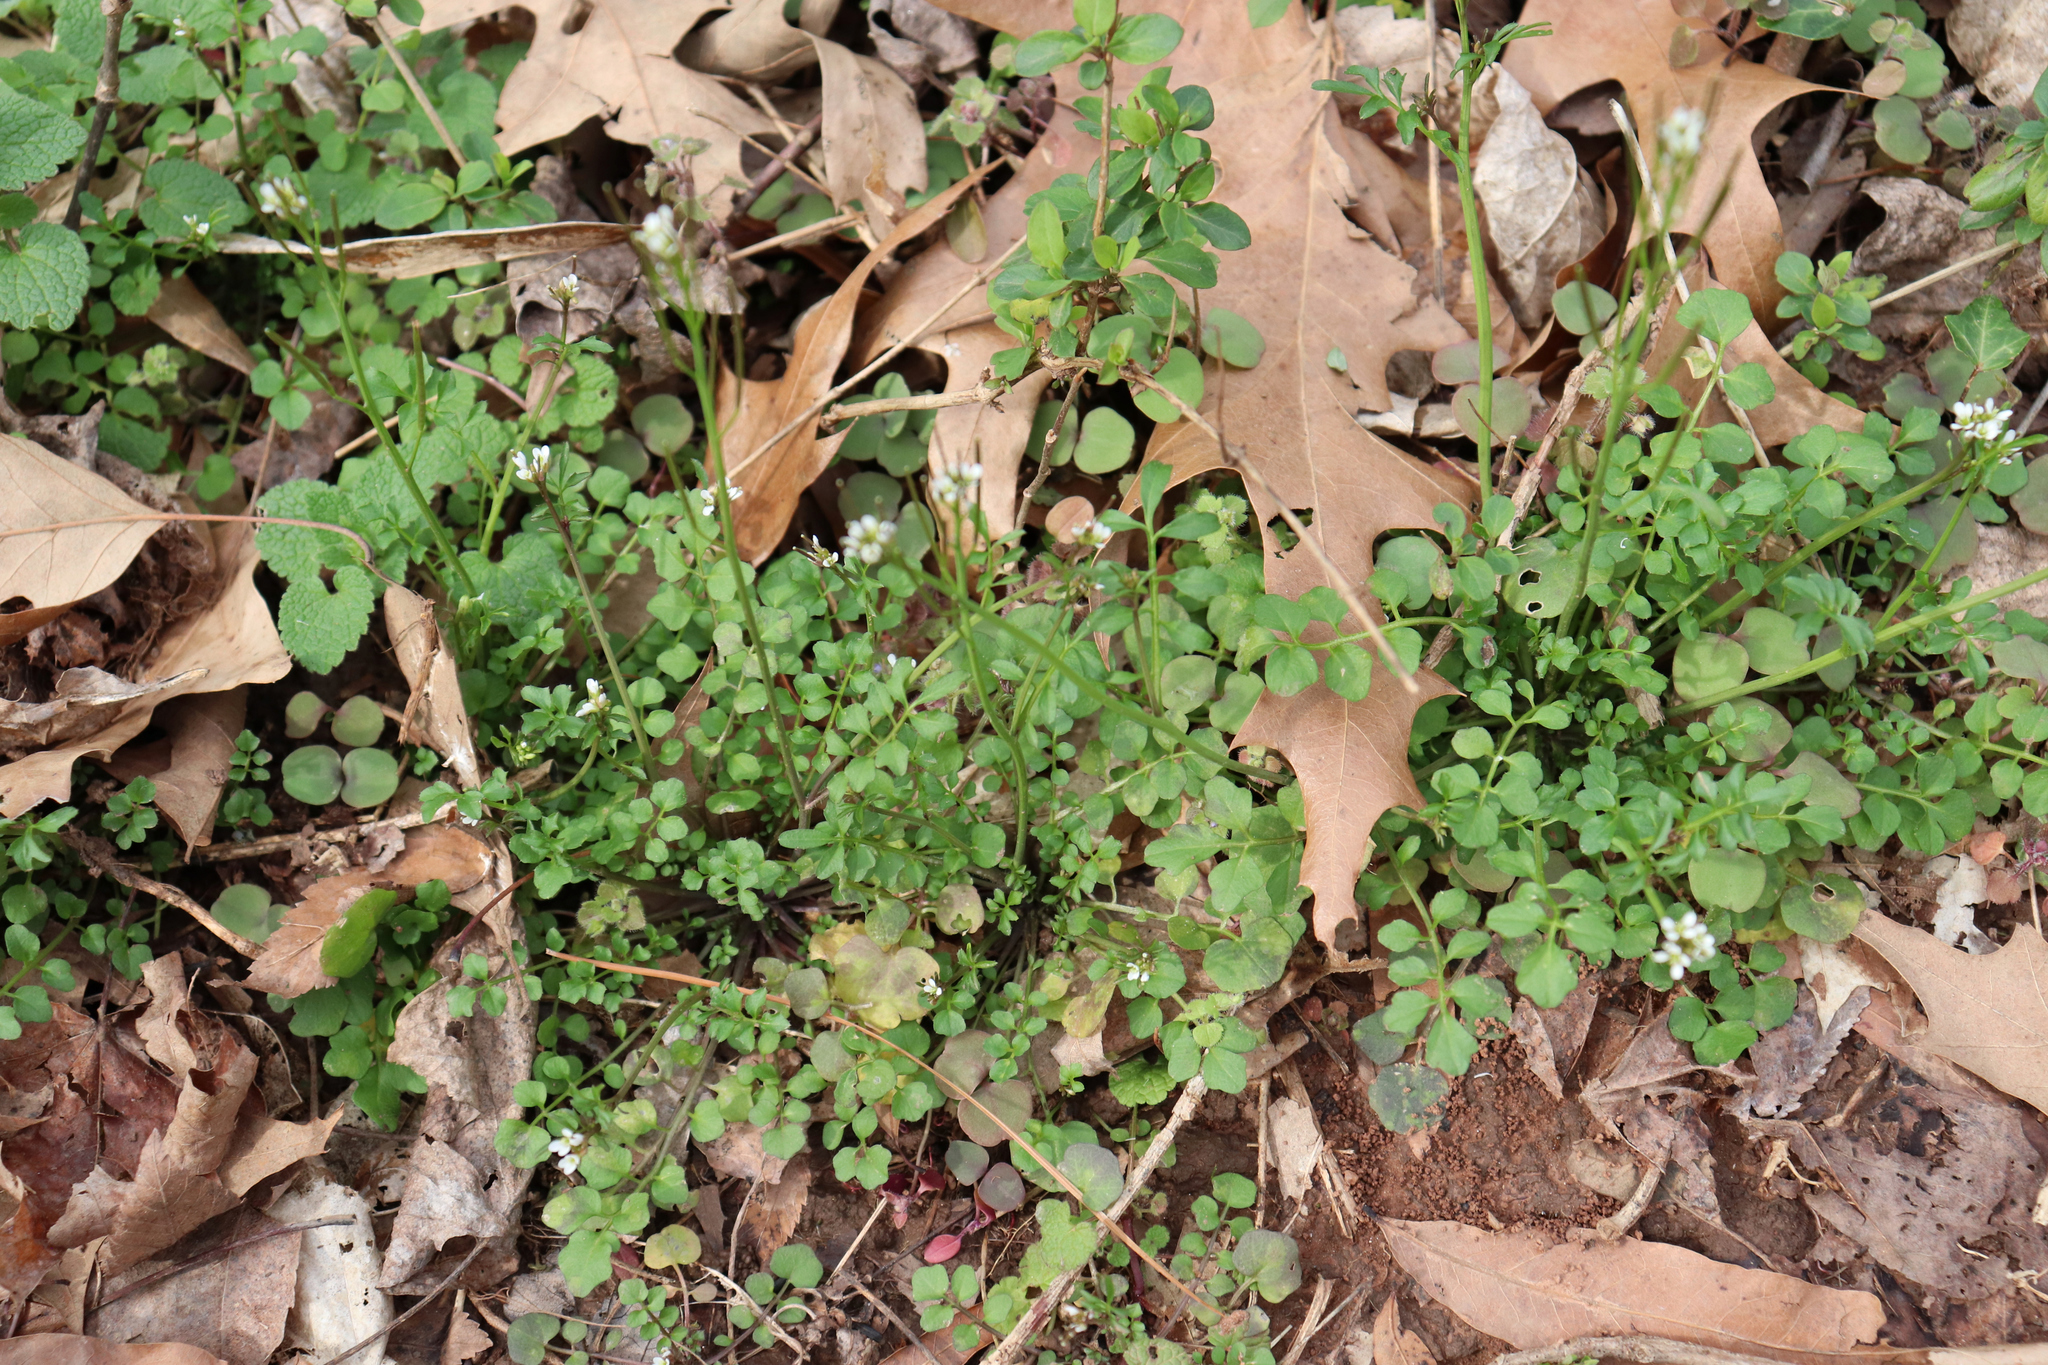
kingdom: Plantae
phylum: Tracheophyta
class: Magnoliopsida
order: Brassicales
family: Brassicaceae
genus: Cardamine
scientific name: Cardamine hirsuta
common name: Hairy bittercress
